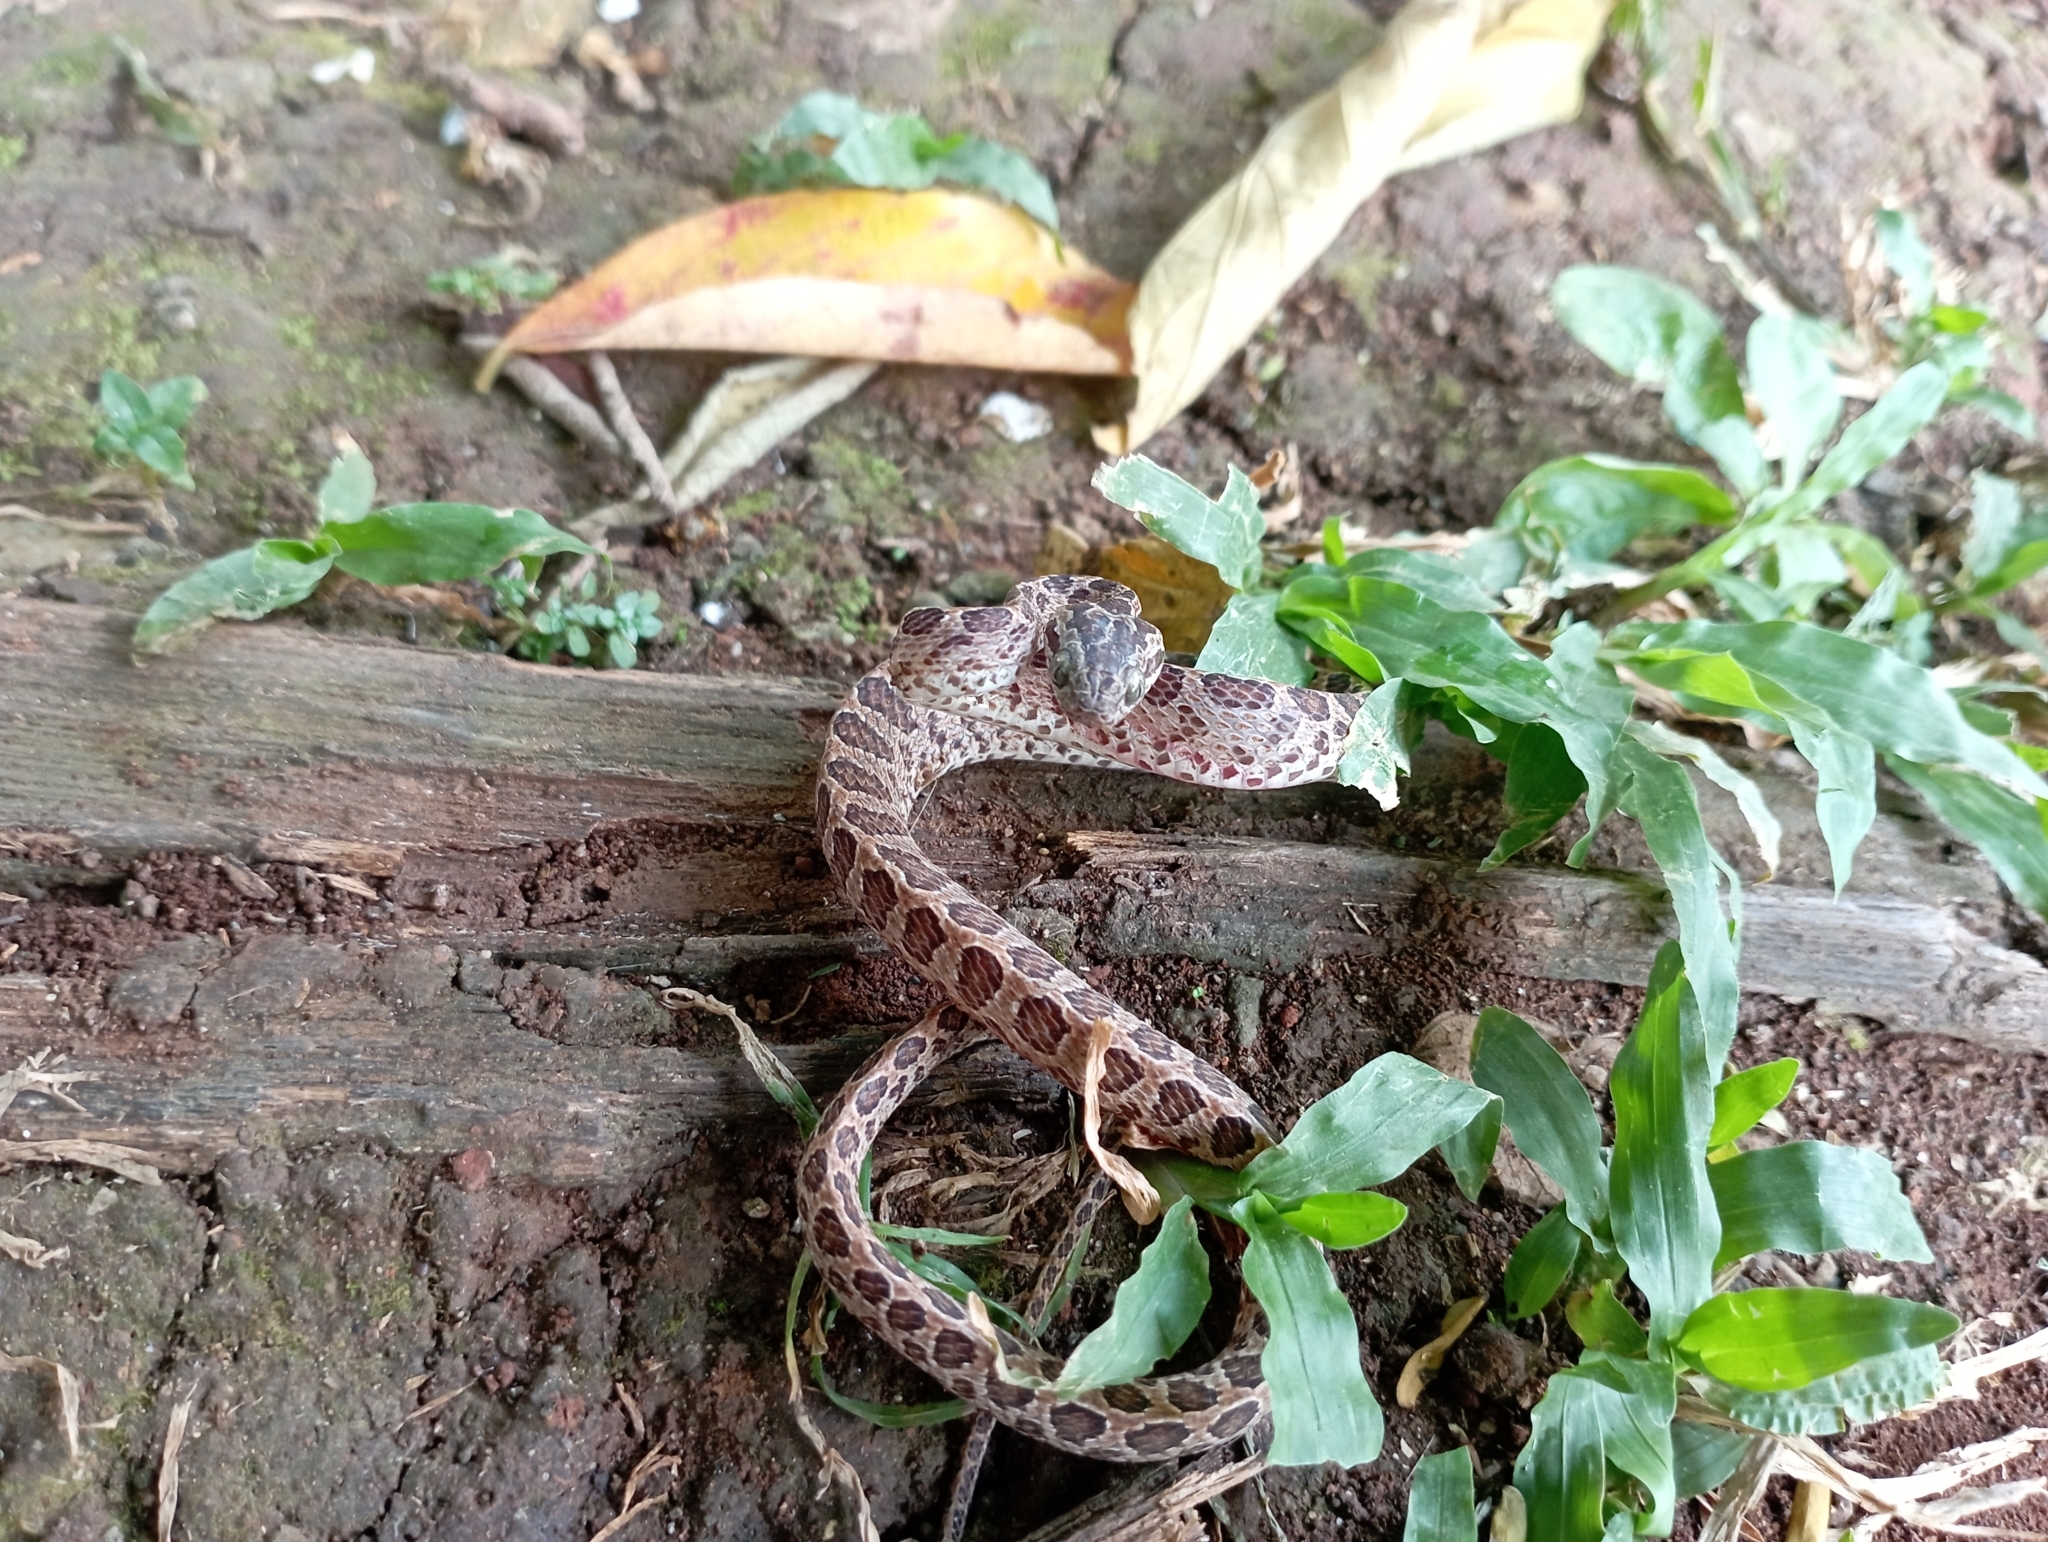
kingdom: Animalia
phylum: Chordata
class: Squamata
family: Colubridae
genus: Boiga
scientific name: Boiga multomaculata
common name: Many-spotted cat snake
